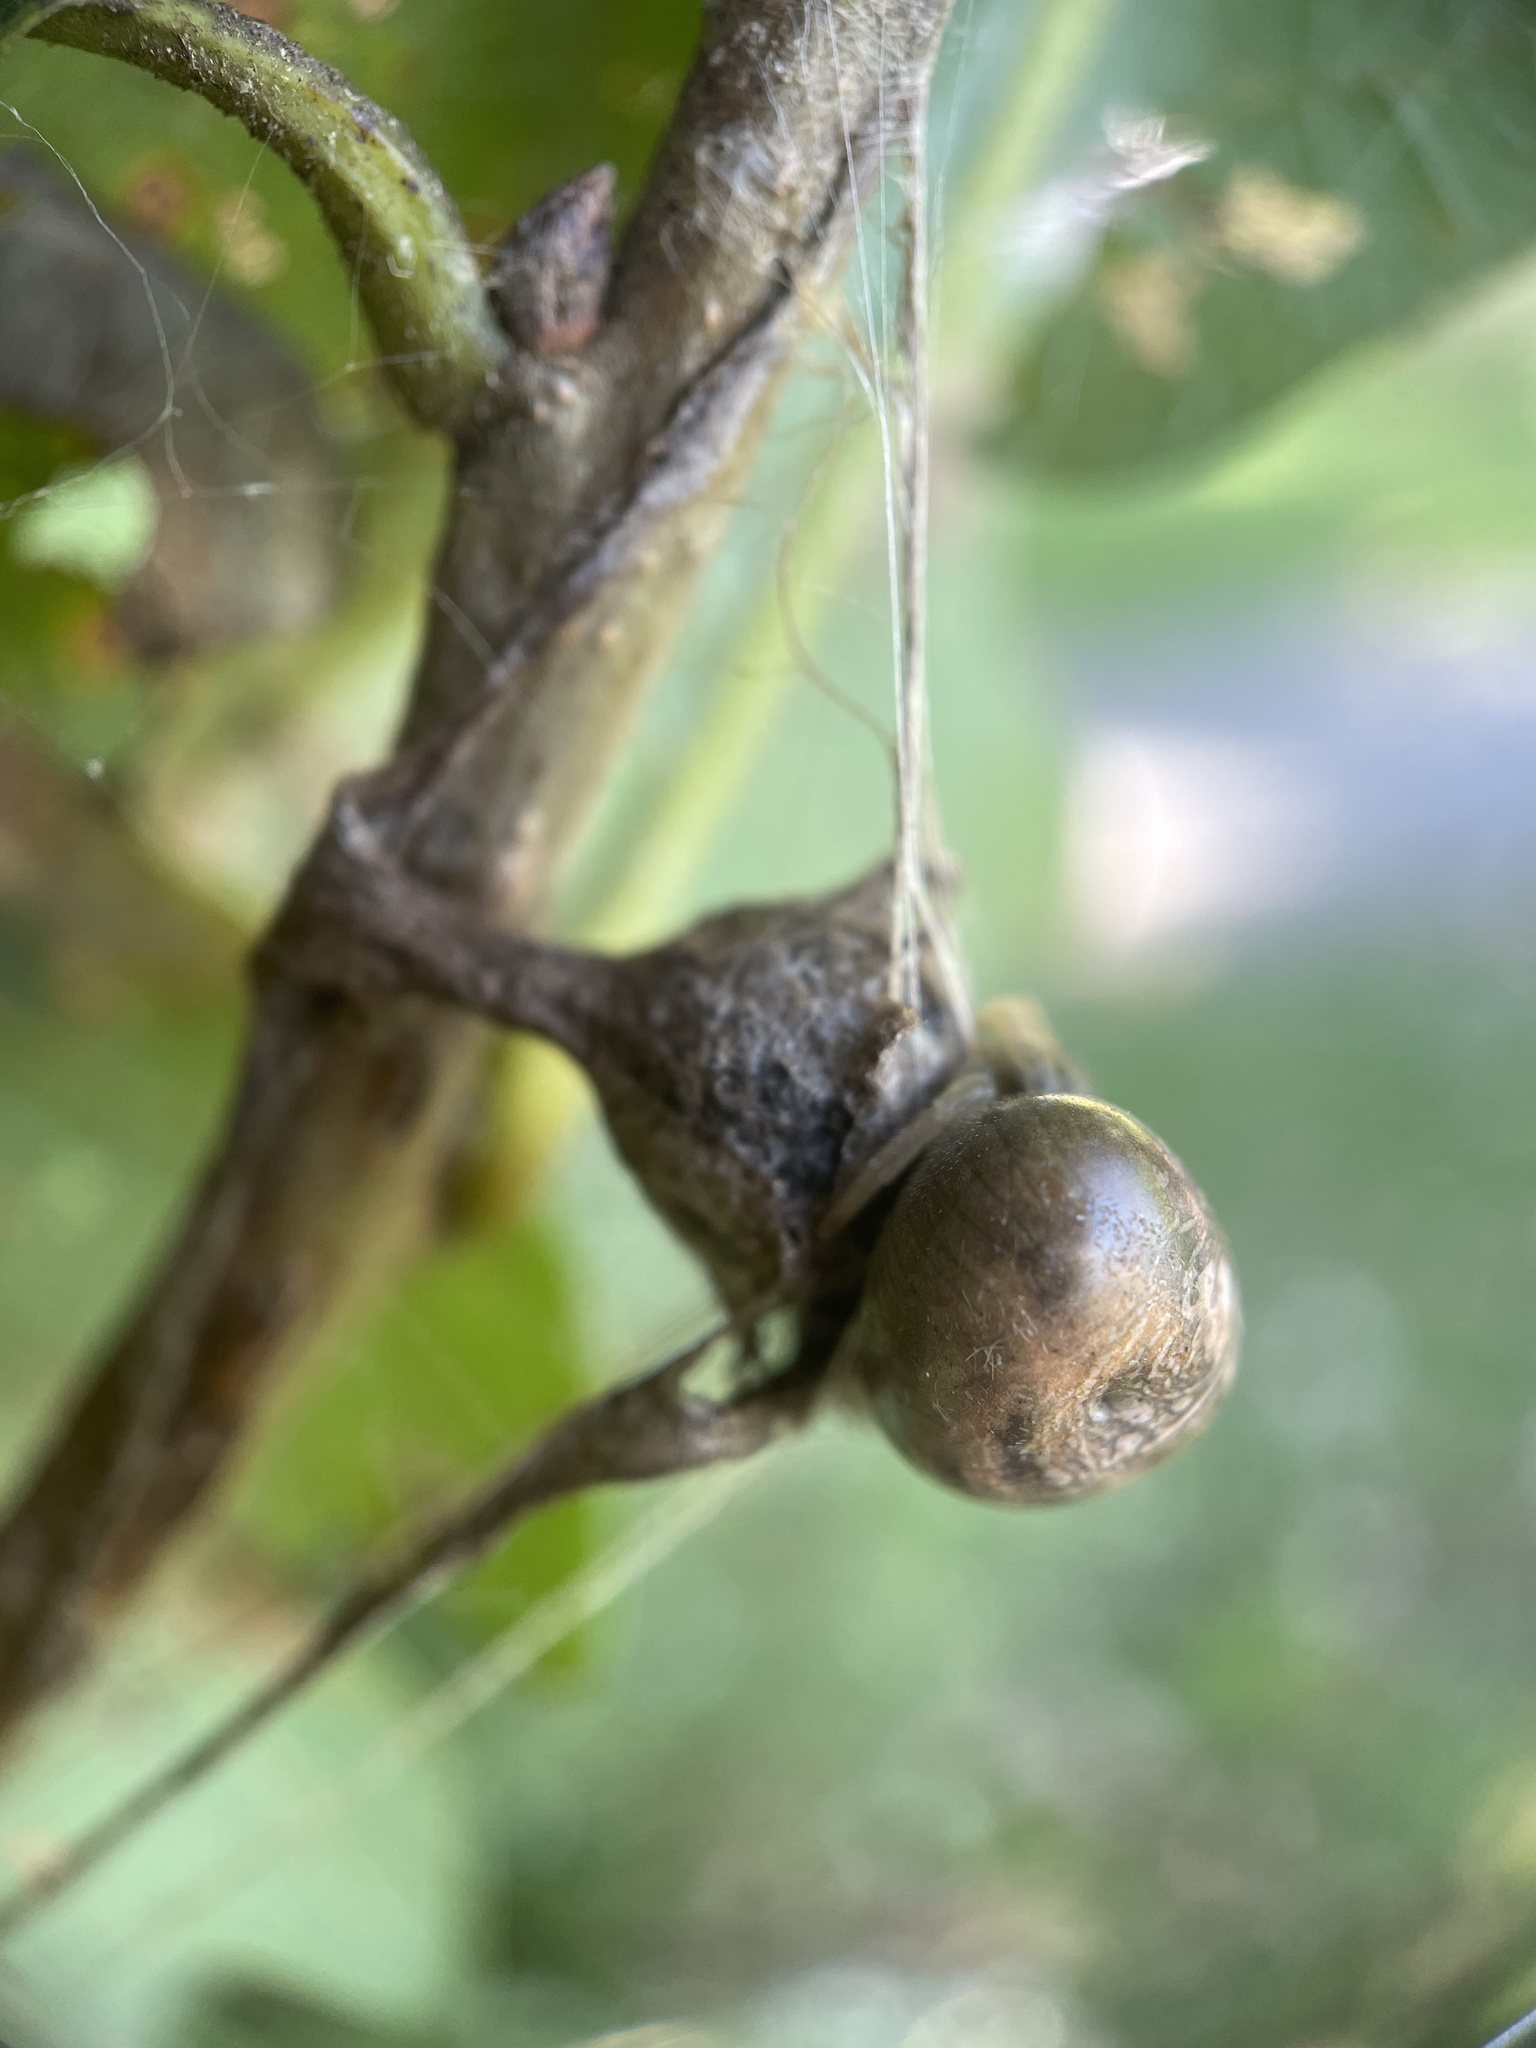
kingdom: Animalia
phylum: Arthropoda
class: Arachnida
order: Araneae
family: Araneidae
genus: Mastophora
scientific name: Mastophora stowei
